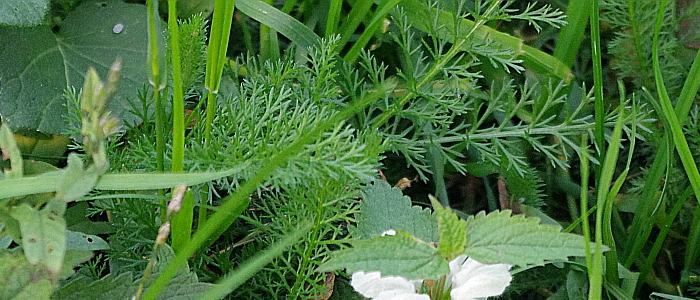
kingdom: Plantae
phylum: Tracheophyta
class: Magnoliopsida
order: Asterales
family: Asteraceae
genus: Achillea
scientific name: Achillea millefolium
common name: Yarrow
